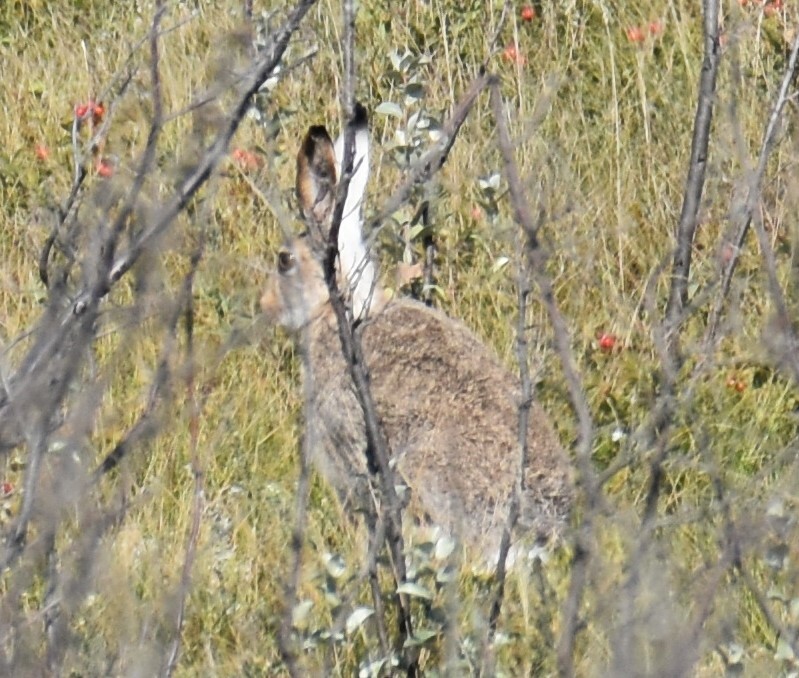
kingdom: Animalia
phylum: Chordata
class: Mammalia
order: Lagomorpha
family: Leporidae
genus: Lepus
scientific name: Lepus townsendii
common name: White-tailed jackrabbit
